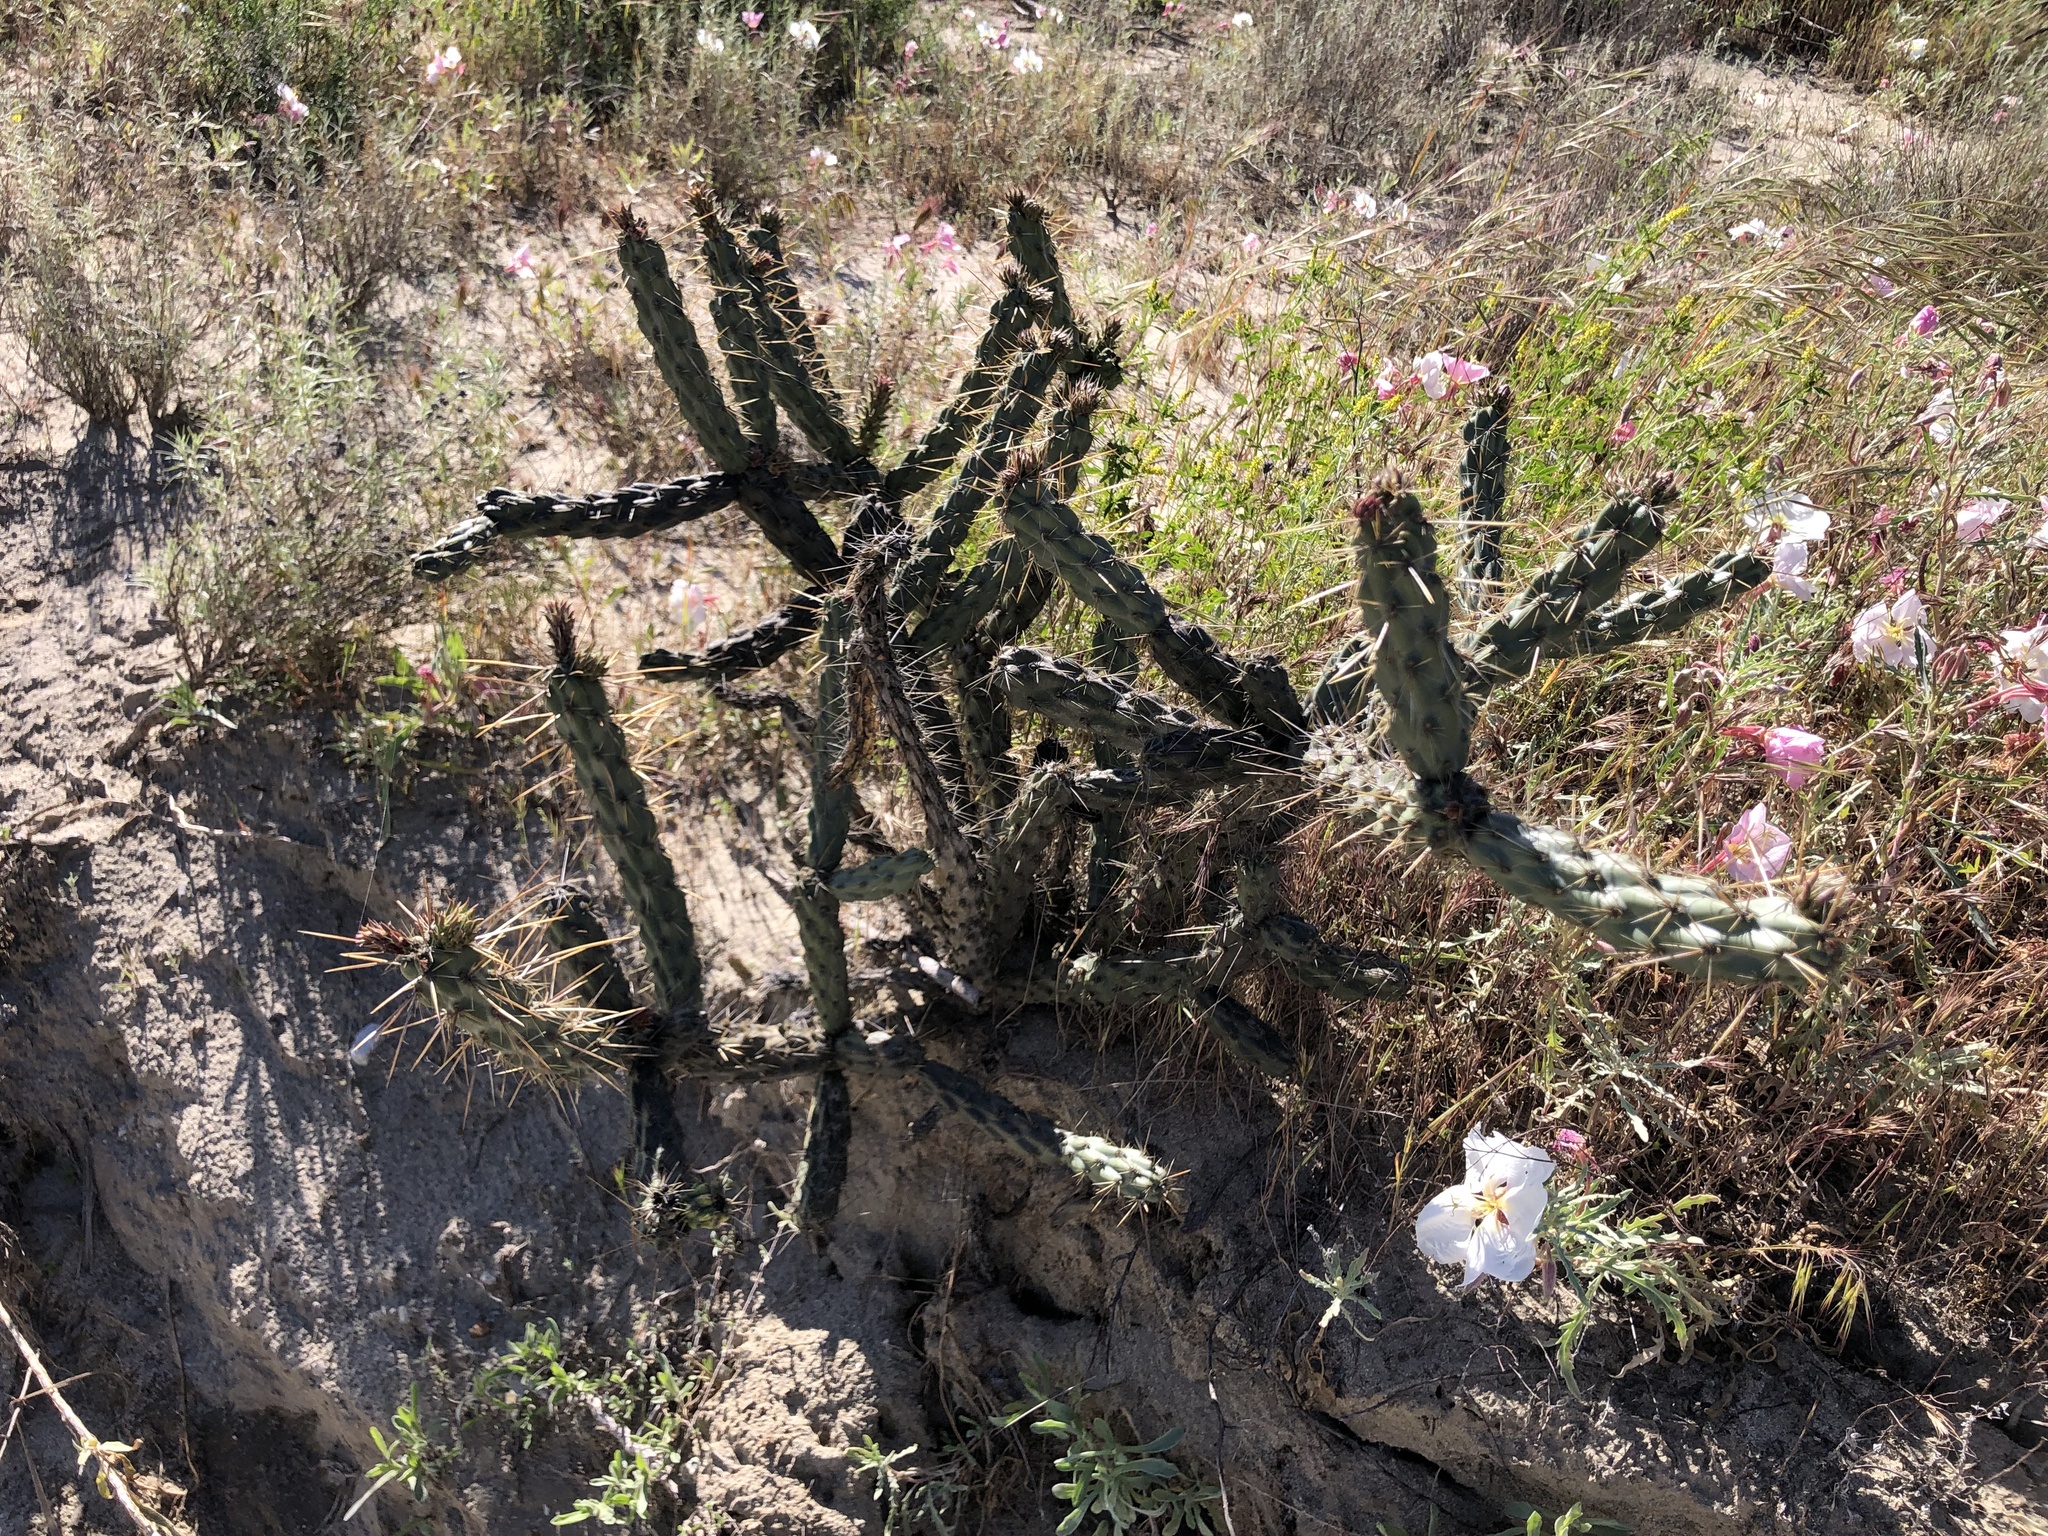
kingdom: Plantae
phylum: Tracheophyta
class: Magnoliopsida
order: Caryophyllales
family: Cactaceae
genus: Cylindropuntia
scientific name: Cylindropuntia bernardina
